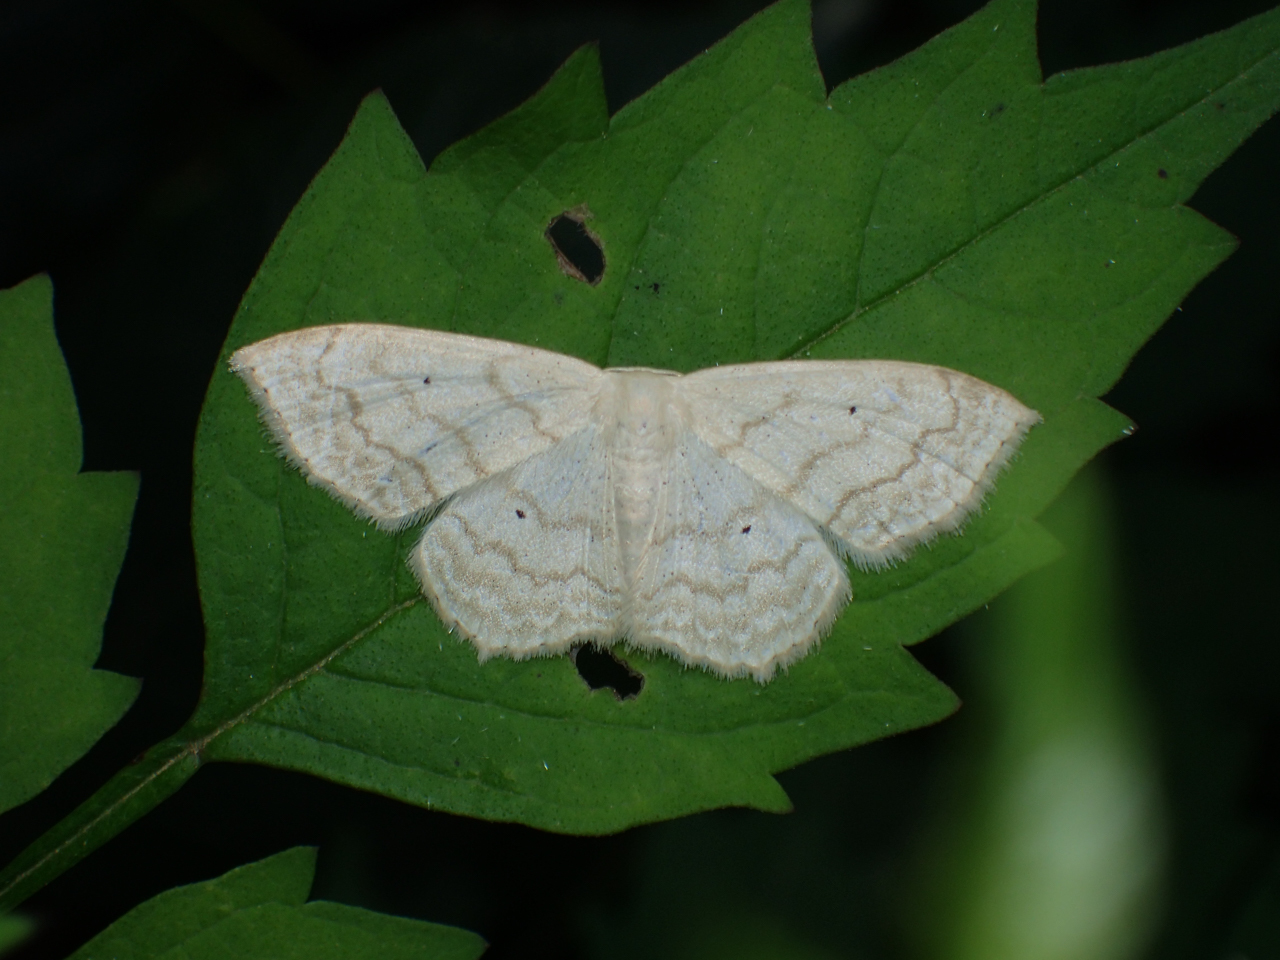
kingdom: Animalia
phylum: Arthropoda
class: Insecta
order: Lepidoptera
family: Geometridae
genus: Scopula
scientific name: Scopula limboundata
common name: Large lace border
